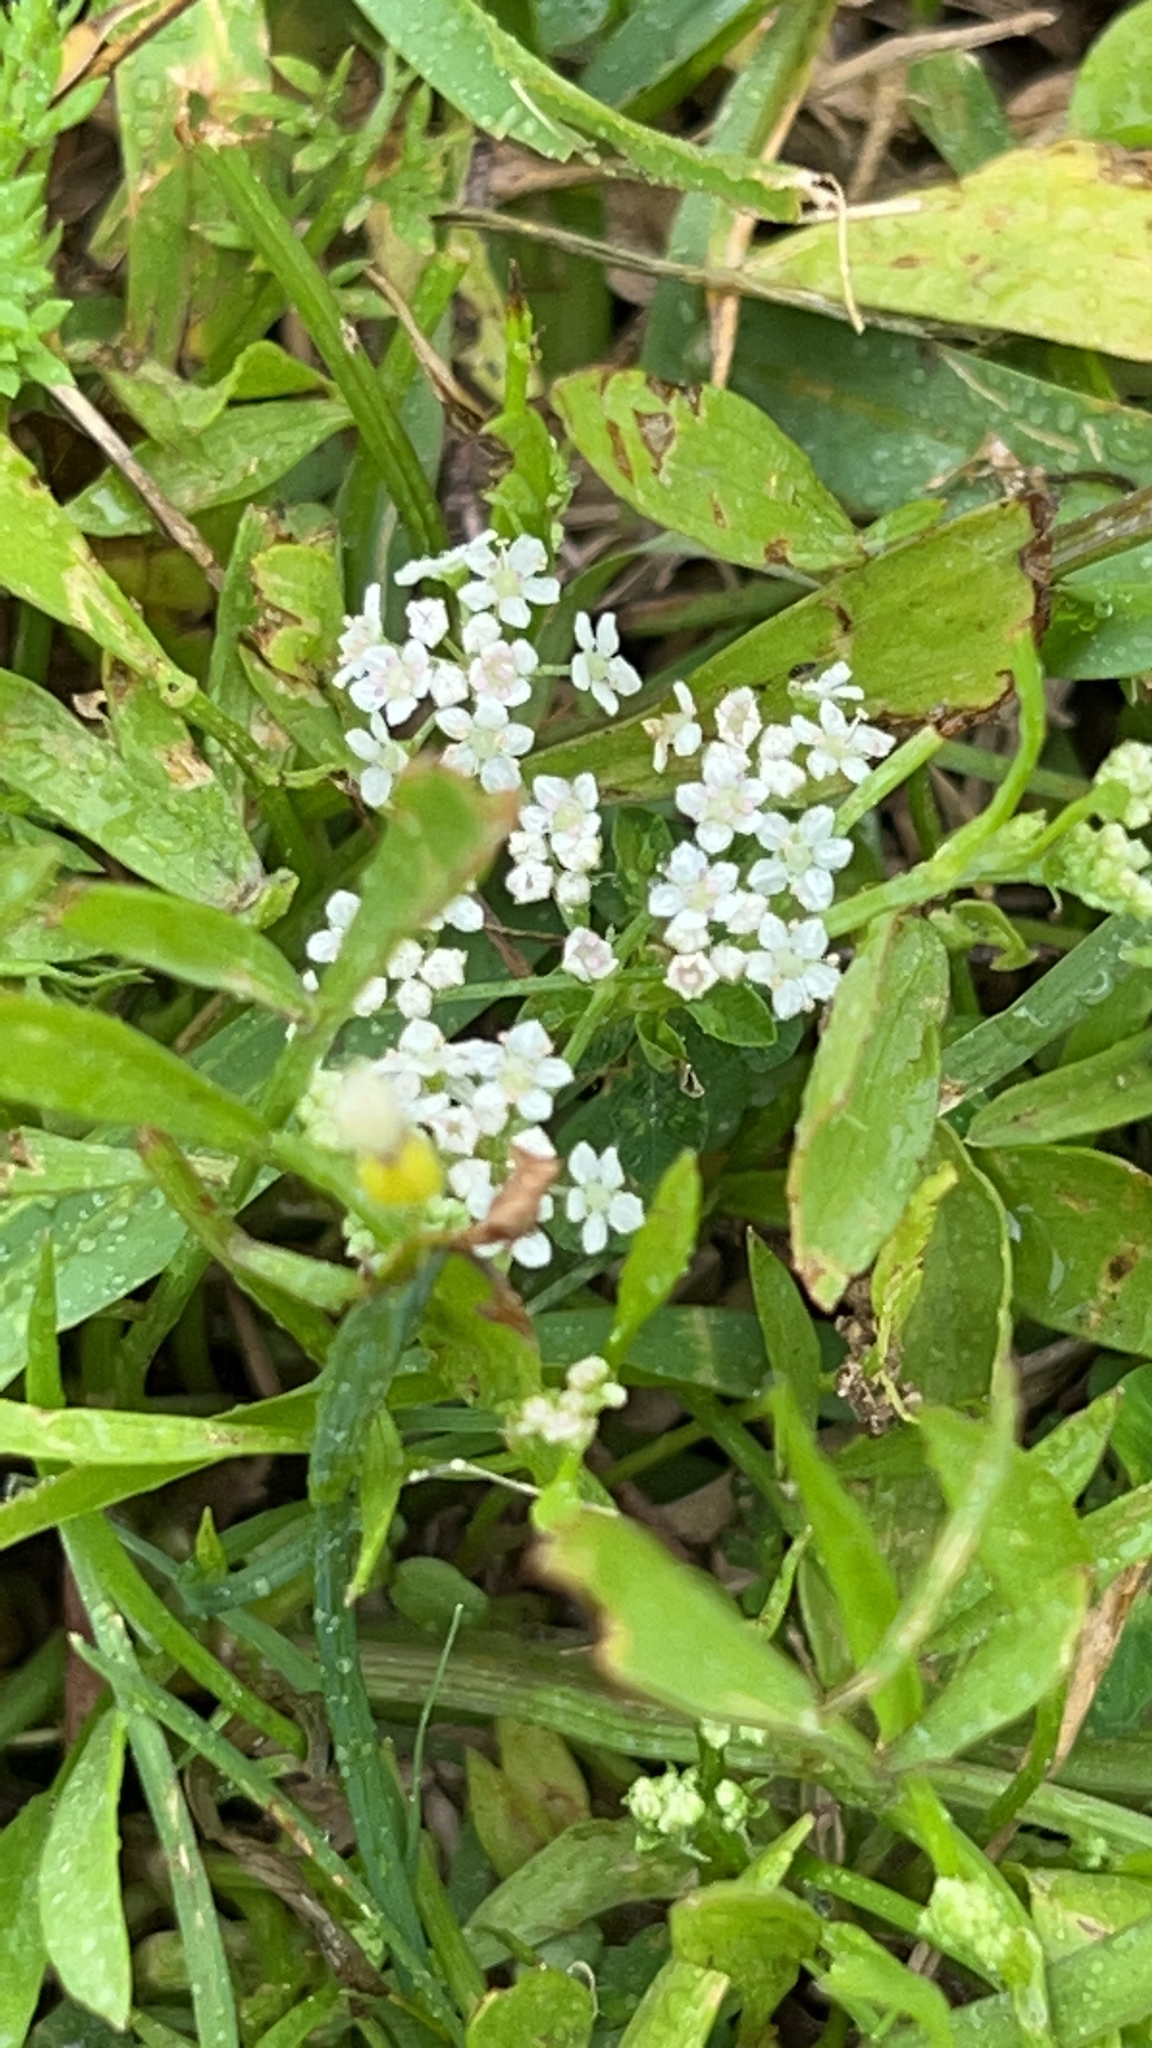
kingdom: Plantae
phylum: Tracheophyta
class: Magnoliopsida
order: Apiales
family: Apiaceae
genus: Limnosciadium
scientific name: Limnosciadium pinnatum
